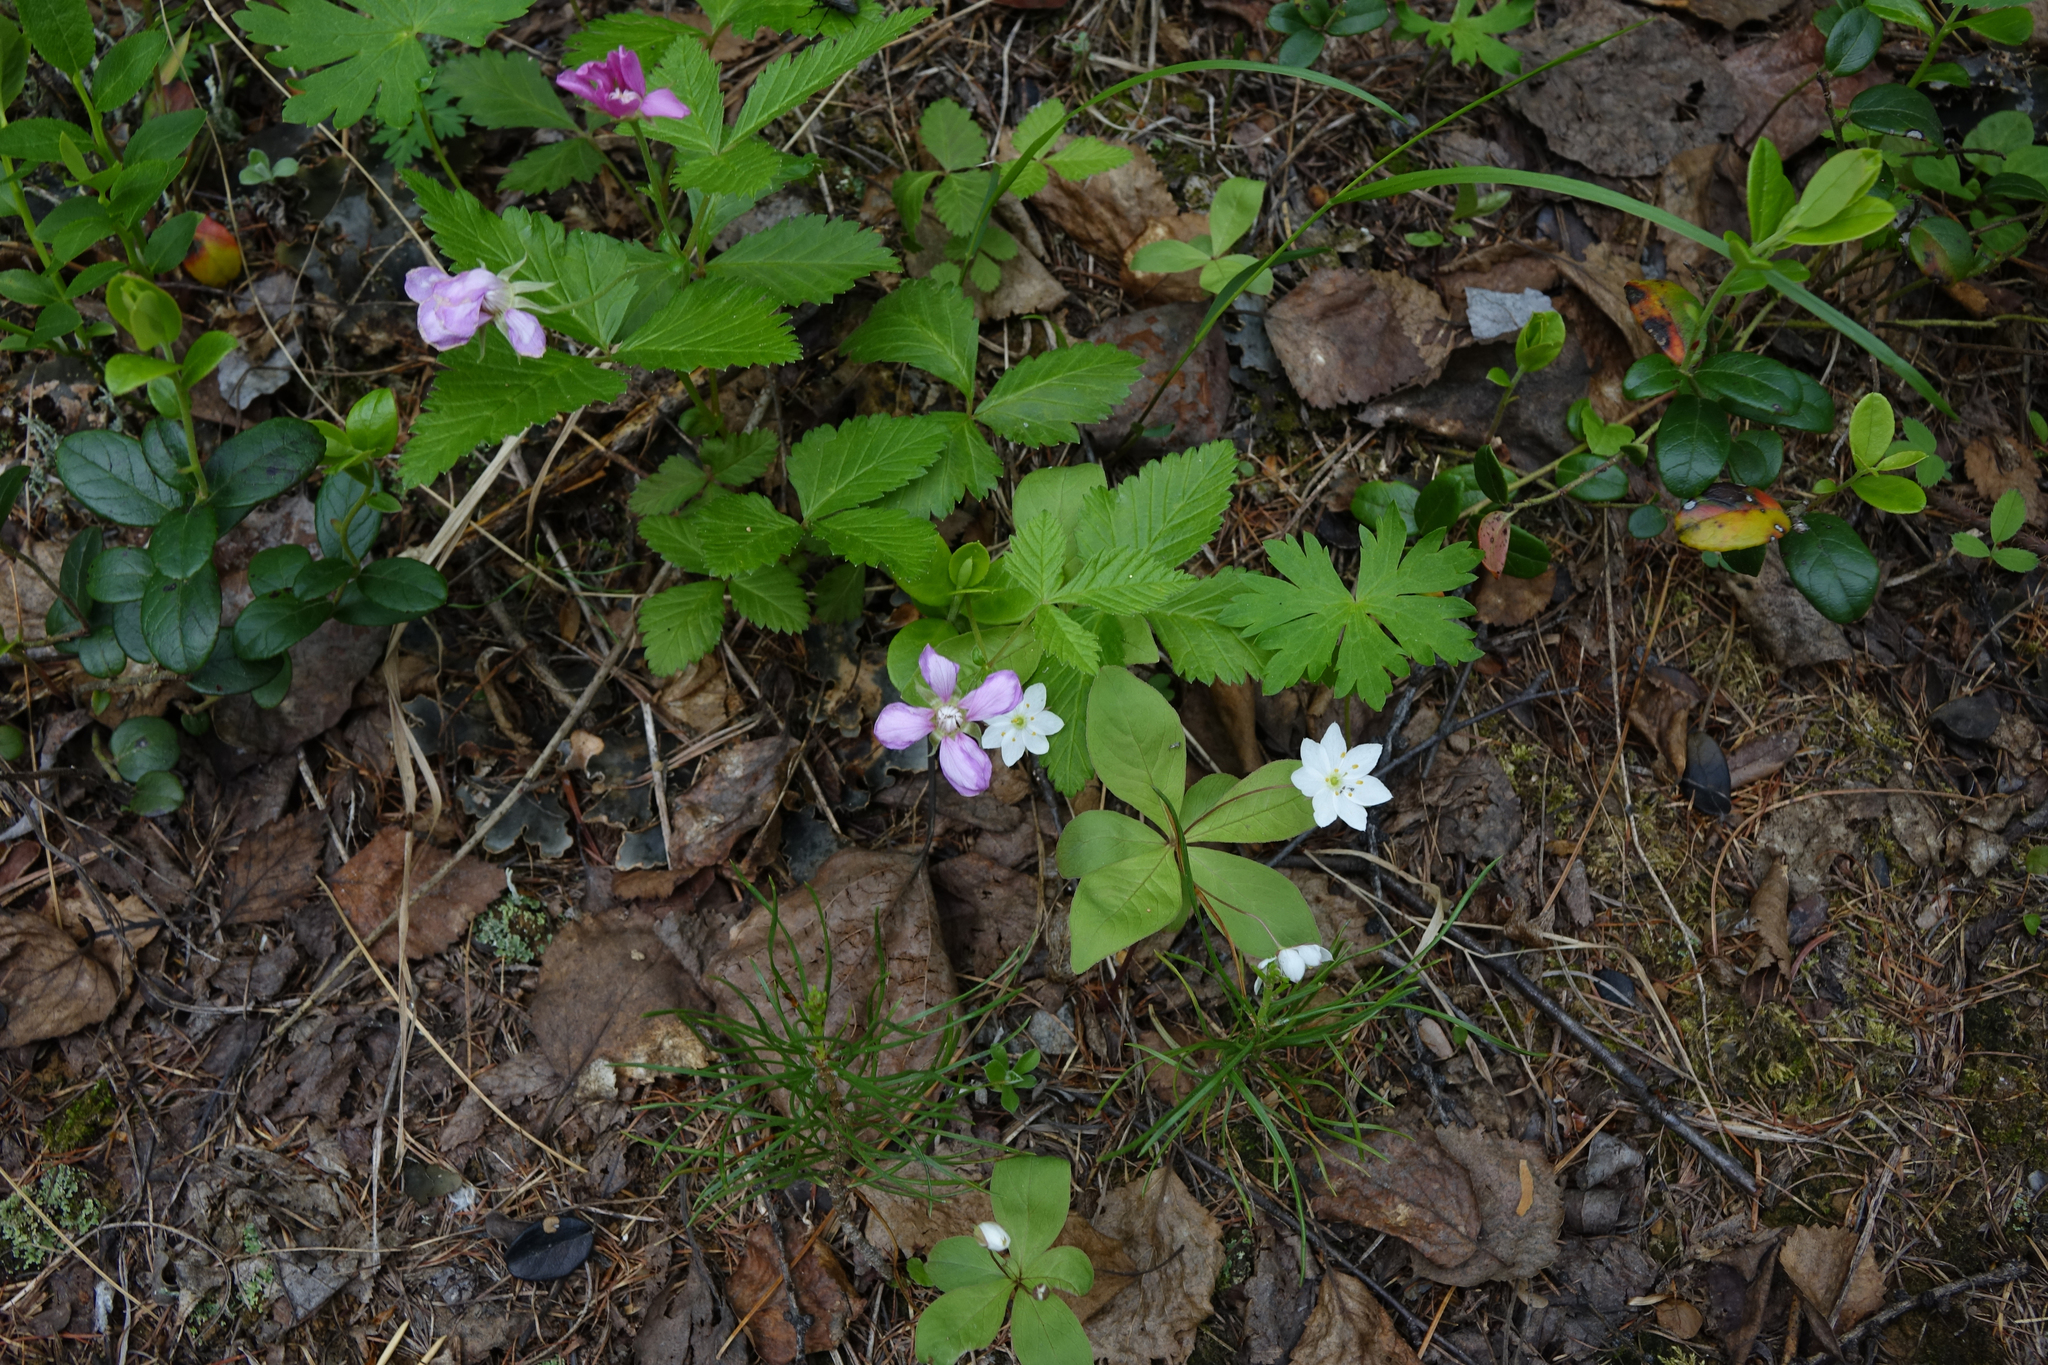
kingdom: Plantae
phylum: Tracheophyta
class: Magnoliopsida
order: Rosales
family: Rosaceae
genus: Rubus
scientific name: Rubus arcticus
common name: Arctic bramble
